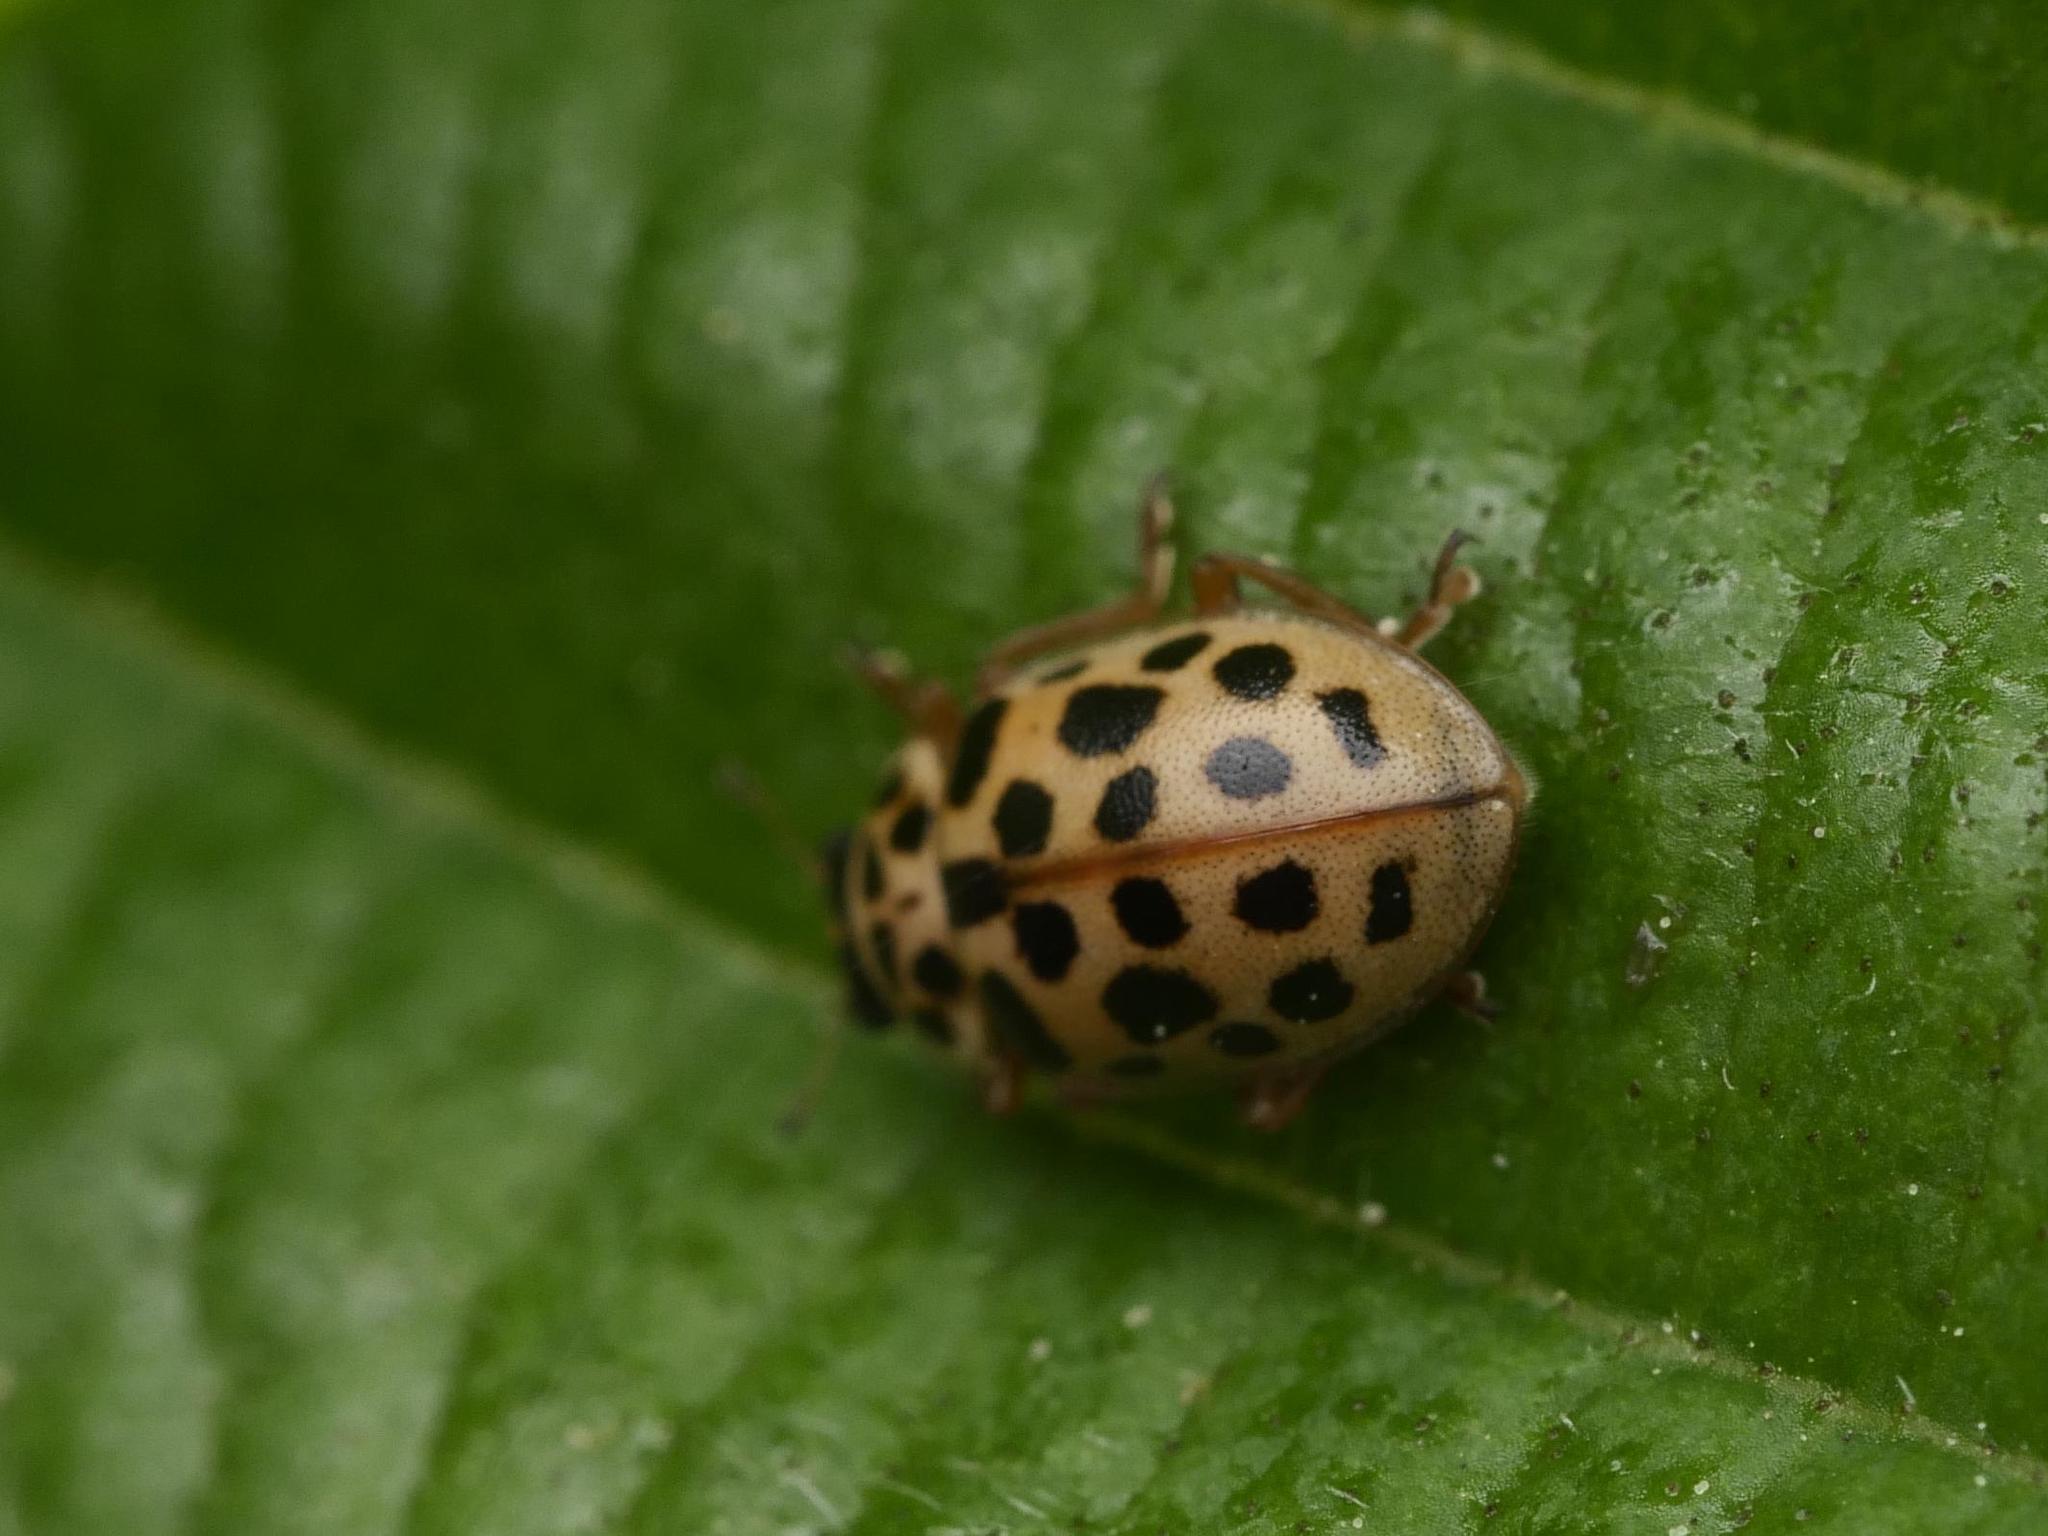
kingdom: Animalia
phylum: Arthropoda
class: Insecta
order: Coleoptera
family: Coccinellidae
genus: Anisosticta
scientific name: Anisosticta novemdecimpunctata
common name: Water ladybird
